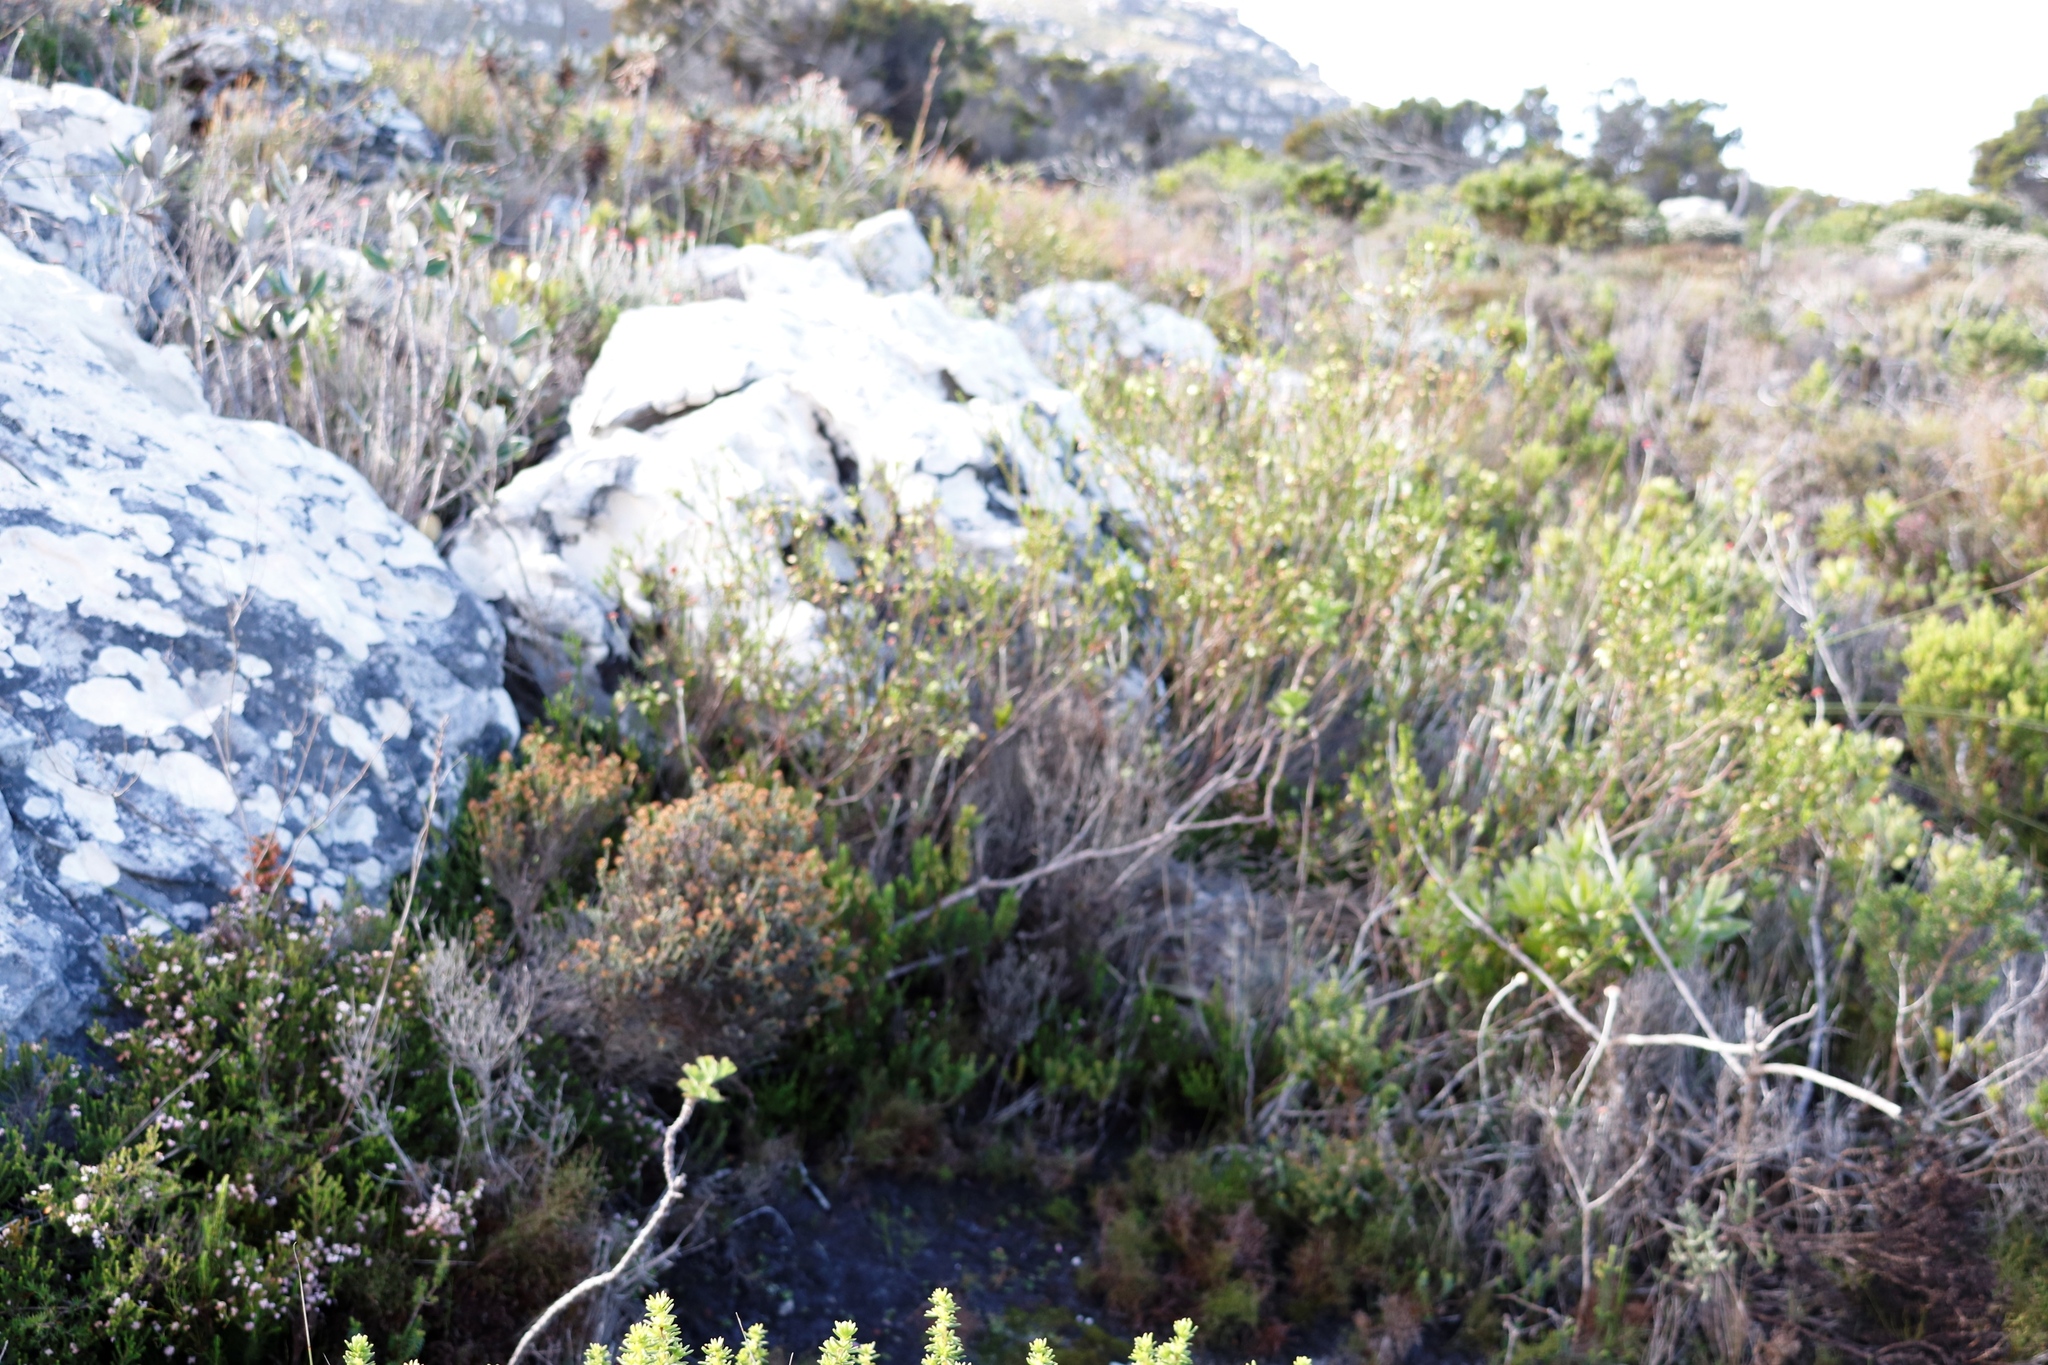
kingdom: Plantae
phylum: Tracheophyta
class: Magnoliopsida
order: Ericales
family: Ericaceae
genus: Erica
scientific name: Erica urna-viridis
